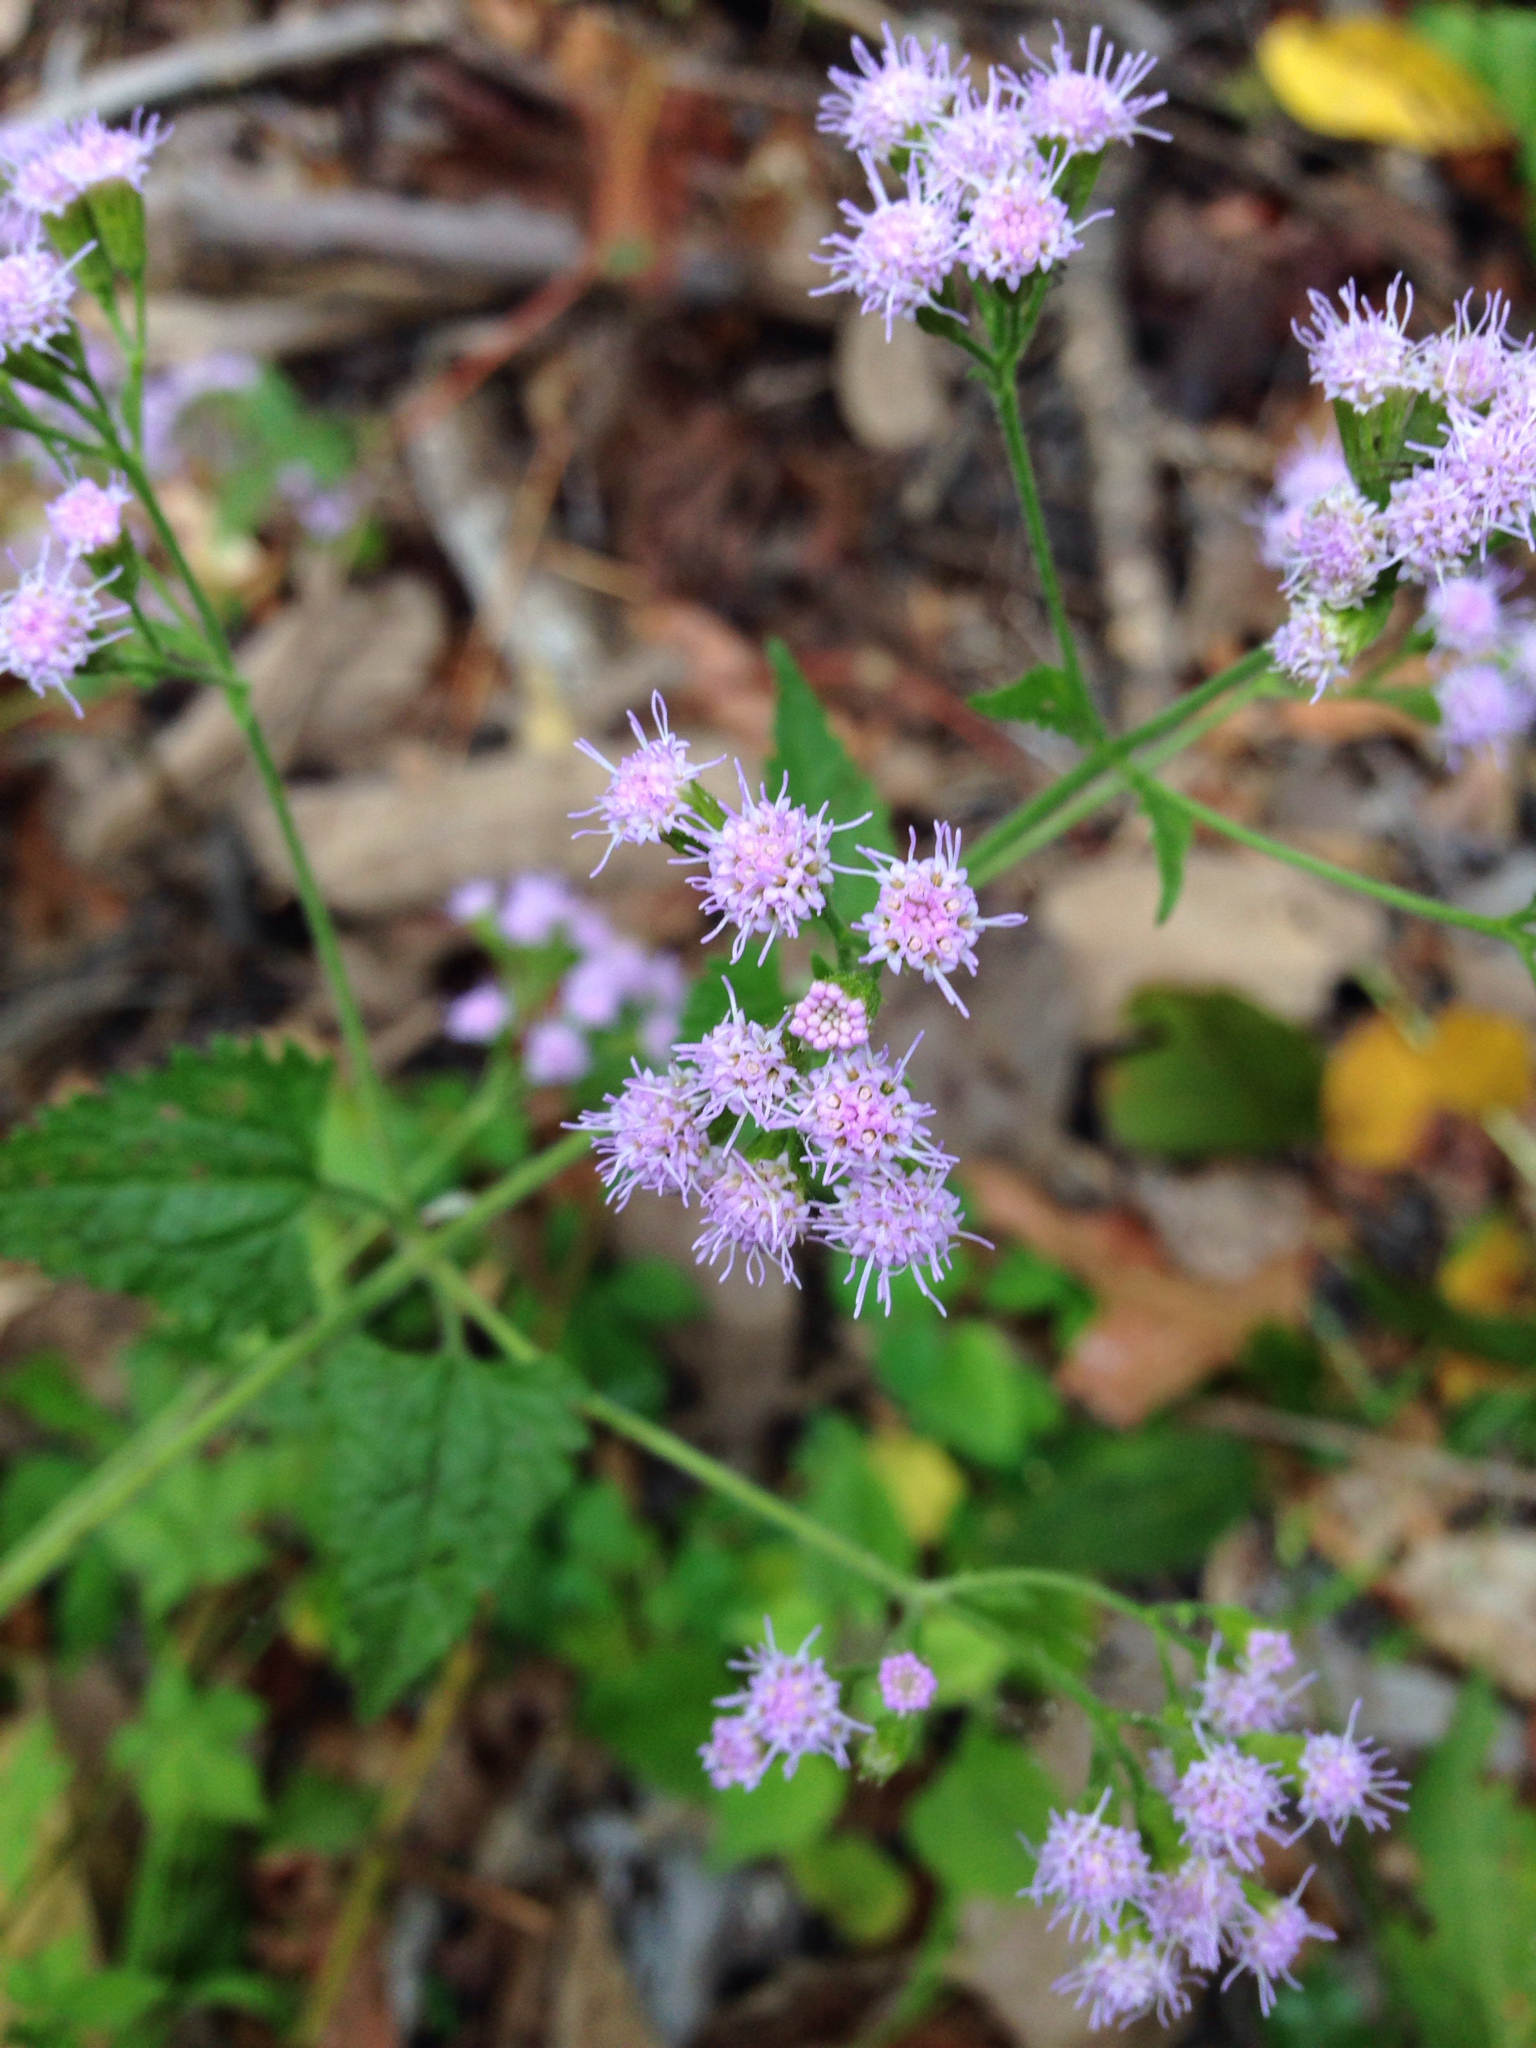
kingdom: Plantae
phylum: Tracheophyta
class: Magnoliopsida
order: Asterales
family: Asteraceae
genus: Conoclinium
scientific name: Conoclinium coelestinum
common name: Blue mistflower
